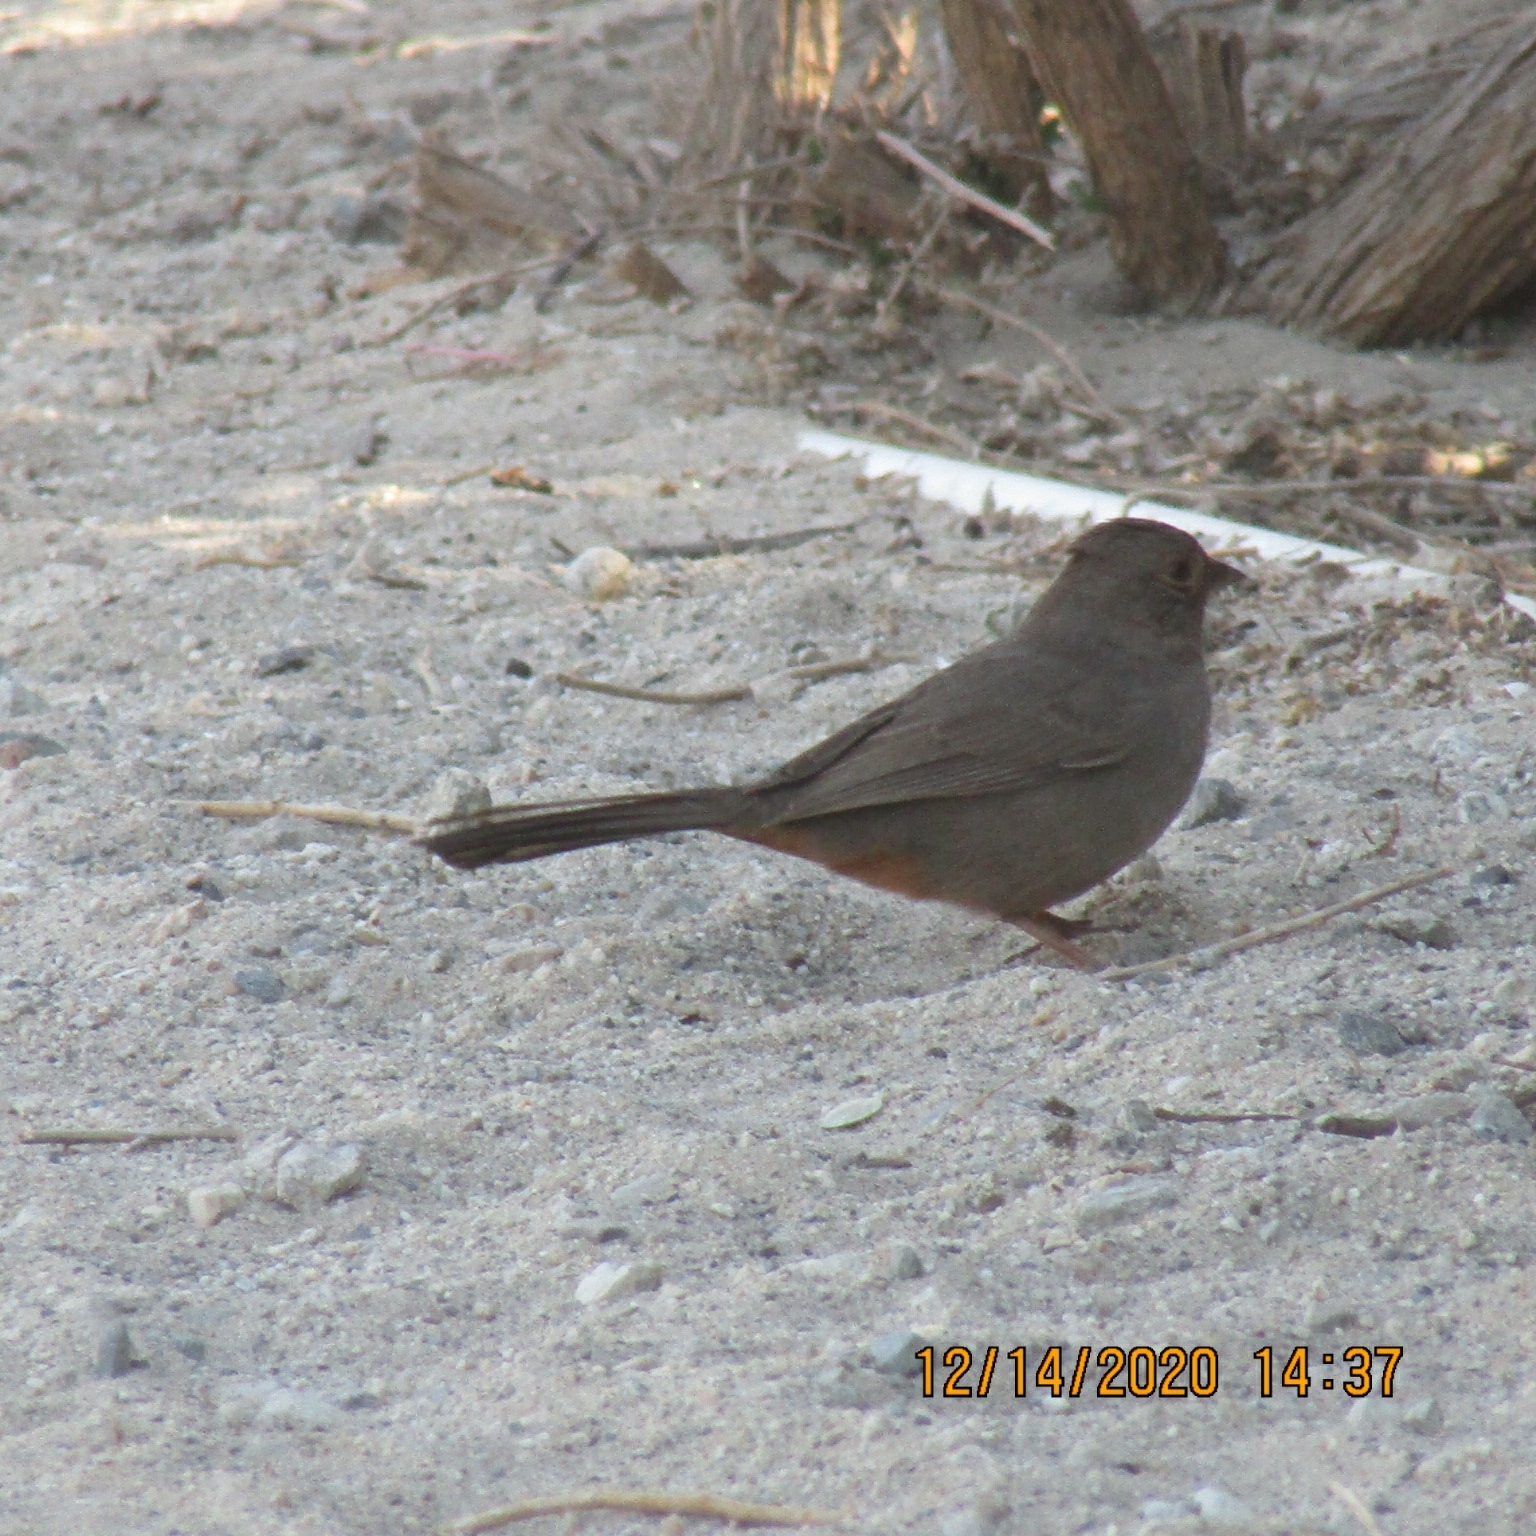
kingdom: Animalia
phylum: Chordata
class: Aves
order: Passeriformes
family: Passerellidae
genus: Melozone
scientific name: Melozone crissalis
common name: California towhee
